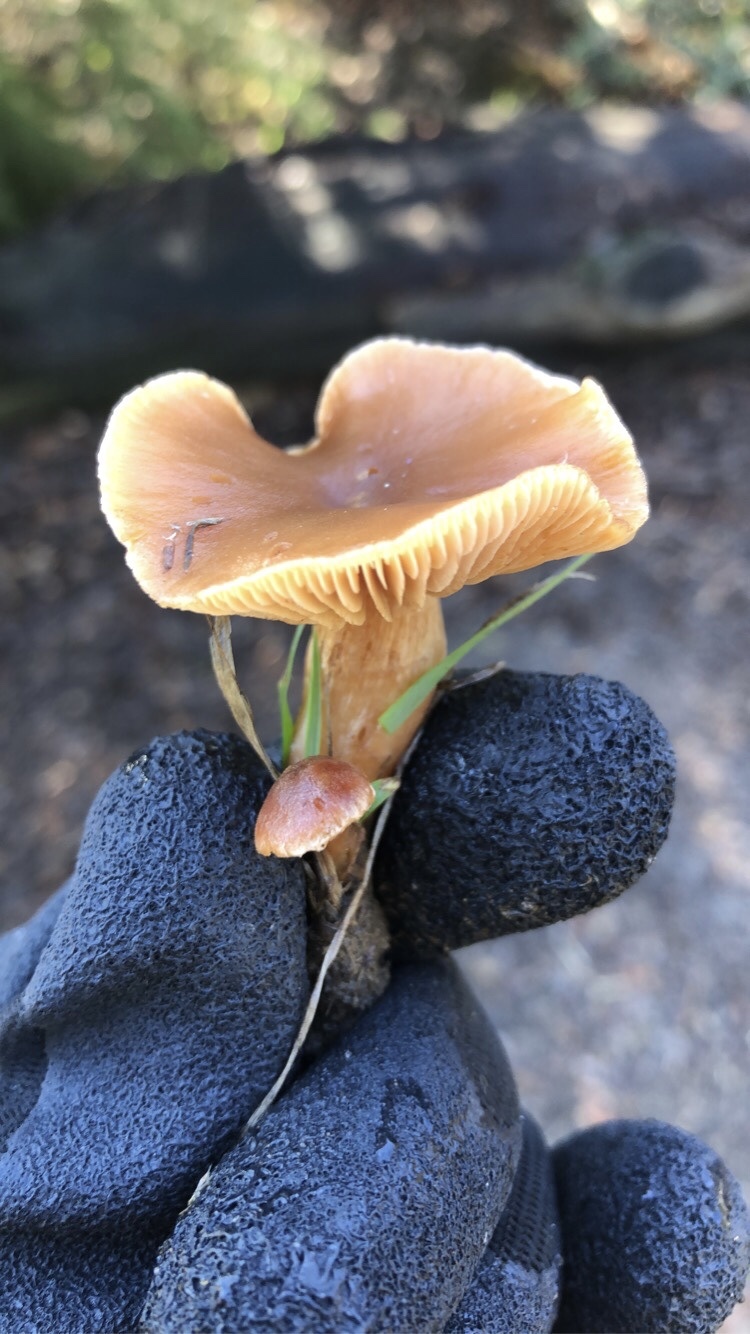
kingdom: Fungi
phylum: Basidiomycota
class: Agaricomycetes
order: Agaricales
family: Tubariaceae
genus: Tubaria
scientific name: Tubaria furfuracea
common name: Scurfy twiglet
